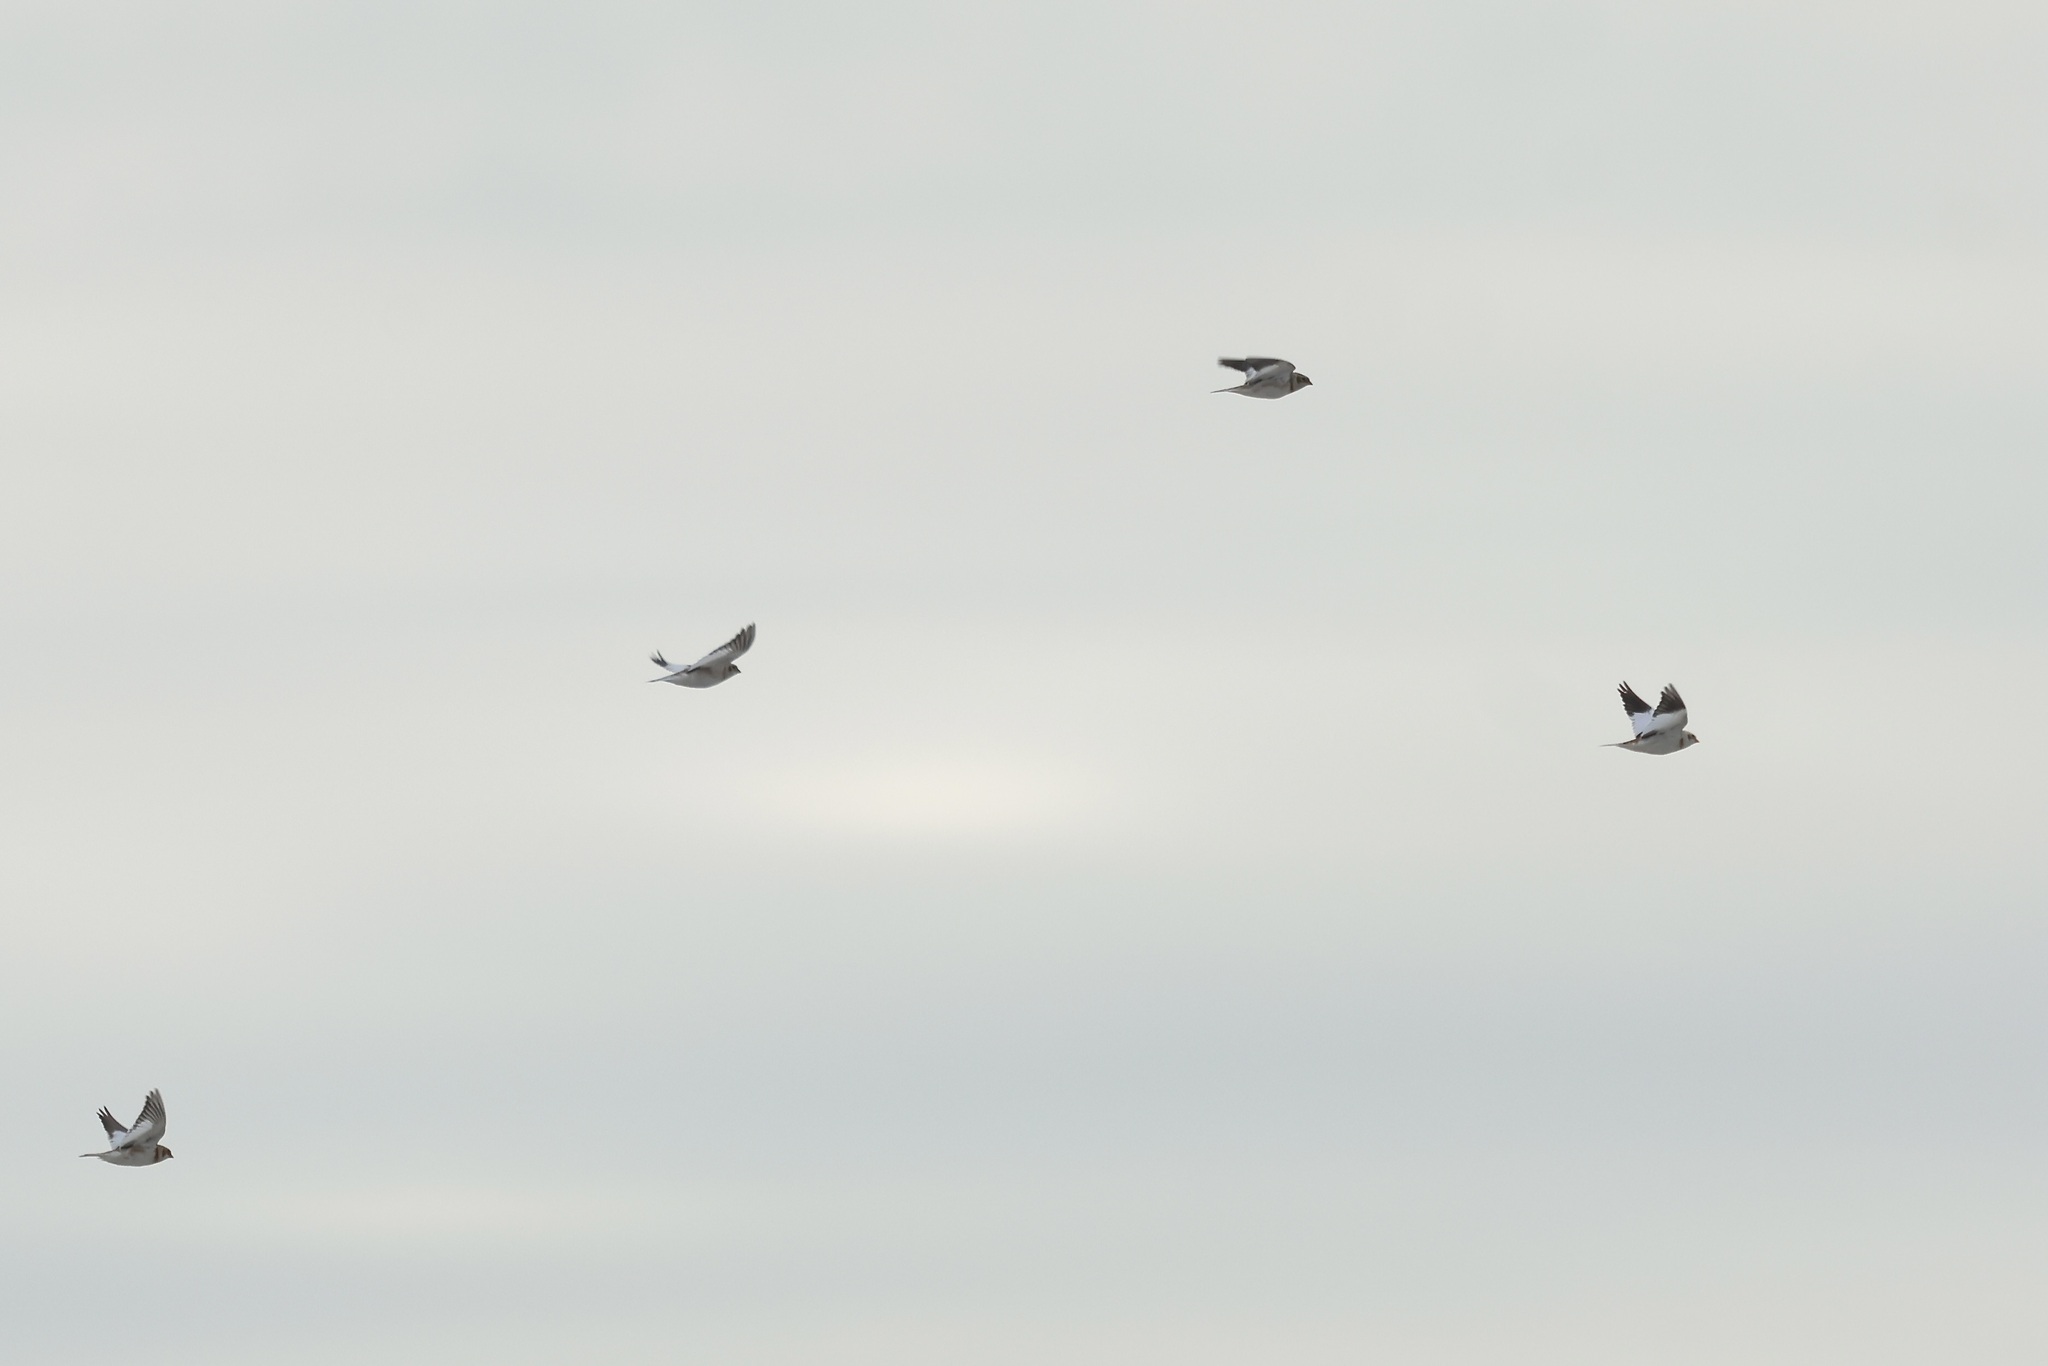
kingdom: Animalia
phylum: Chordata
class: Aves
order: Passeriformes
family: Calcariidae
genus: Plectrophenax
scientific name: Plectrophenax nivalis
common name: Snow bunting
